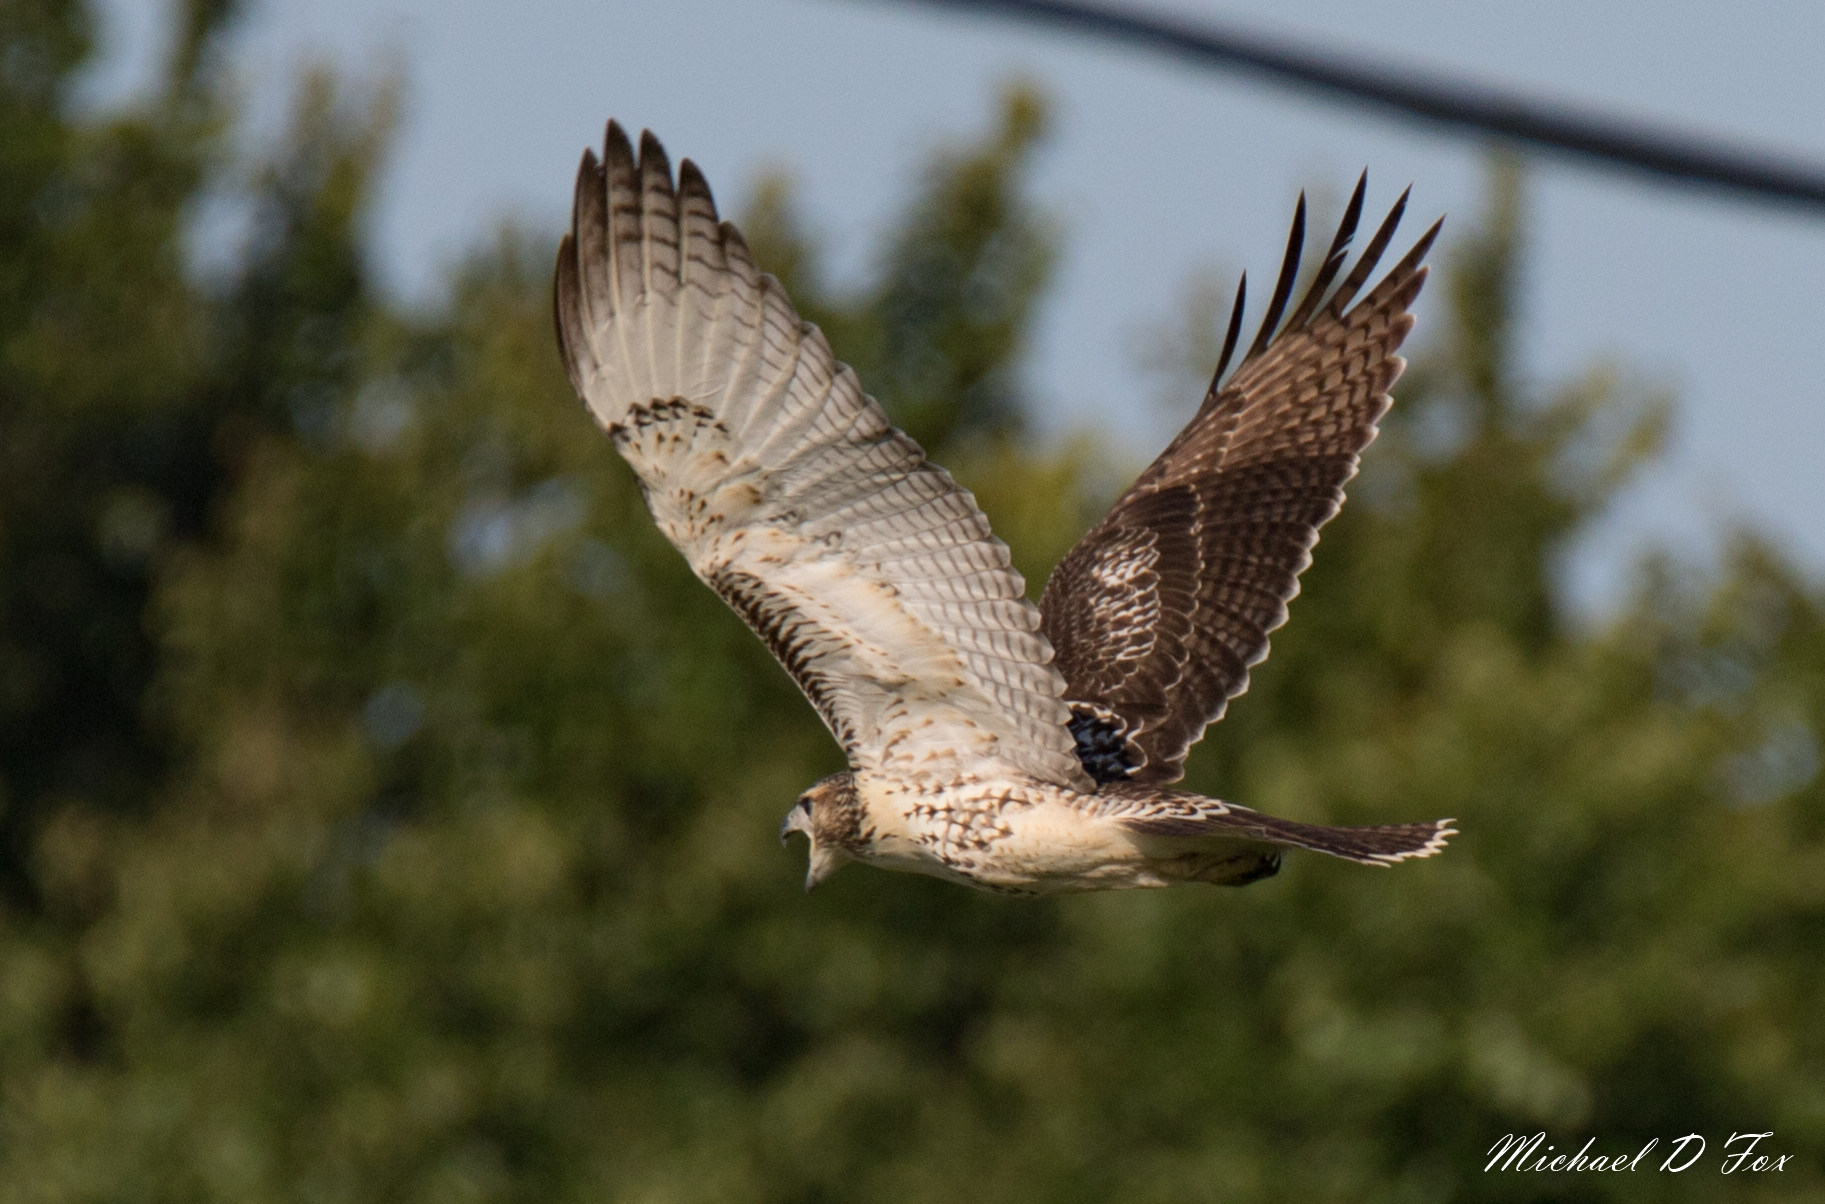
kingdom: Animalia
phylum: Chordata
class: Aves
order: Accipitriformes
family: Accipitridae
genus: Buteo
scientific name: Buteo jamaicensis
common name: Red-tailed hawk
